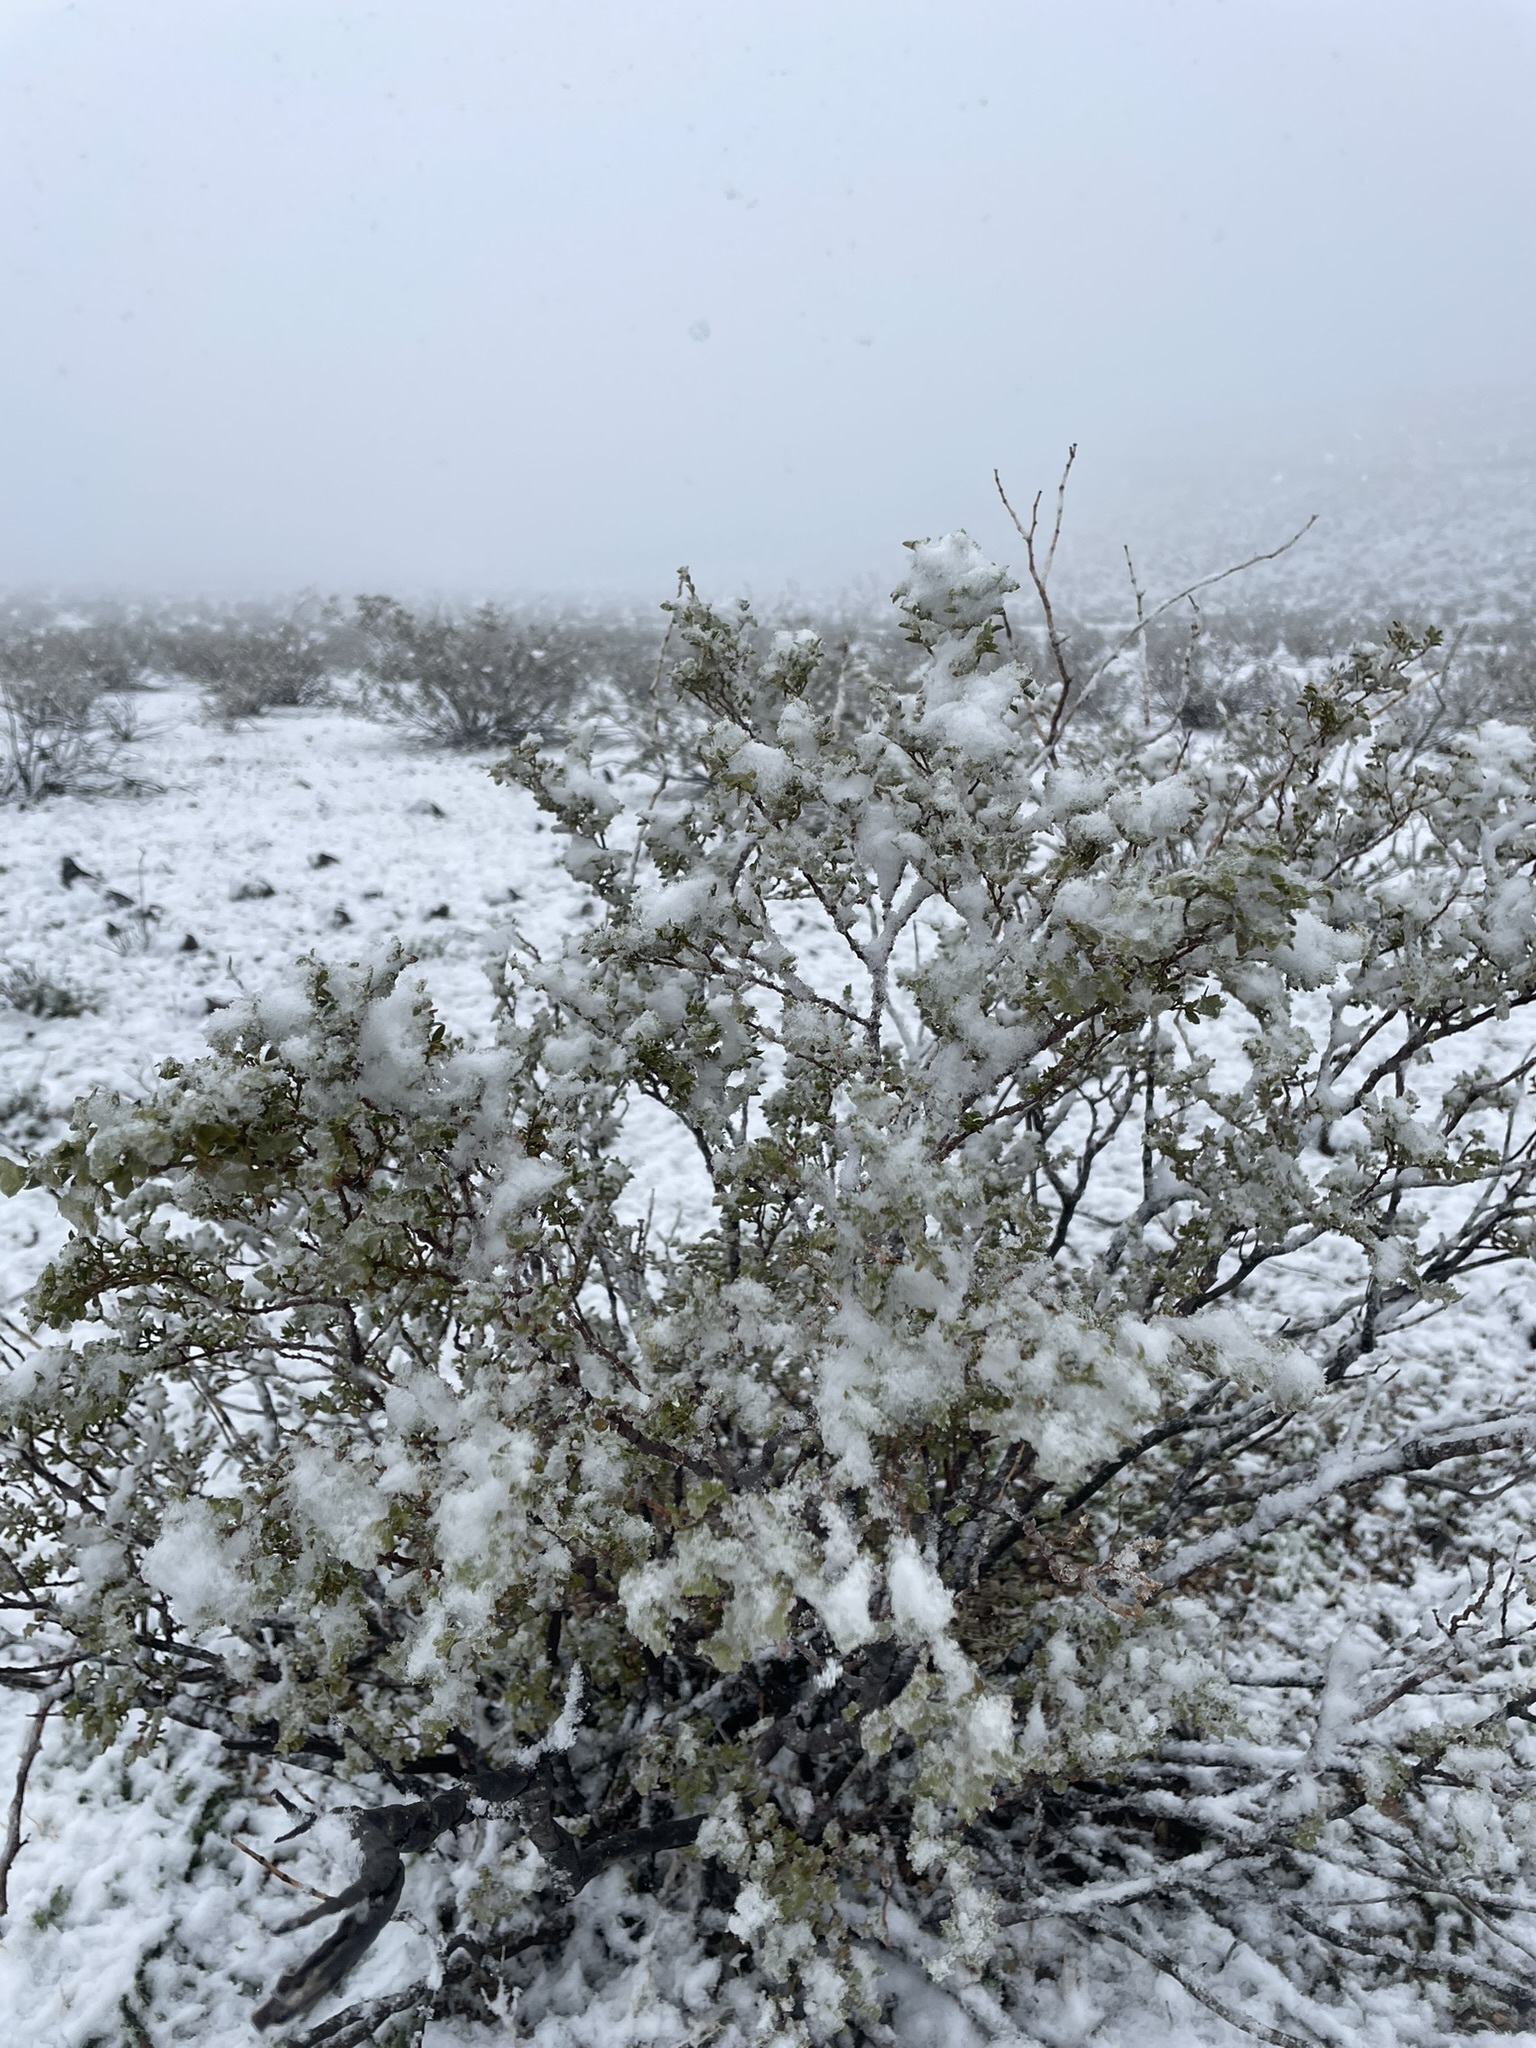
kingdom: Plantae
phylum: Tracheophyta
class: Magnoliopsida
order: Zygophyllales
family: Zygophyllaceae
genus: Larrea
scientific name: Larrea tridentata
